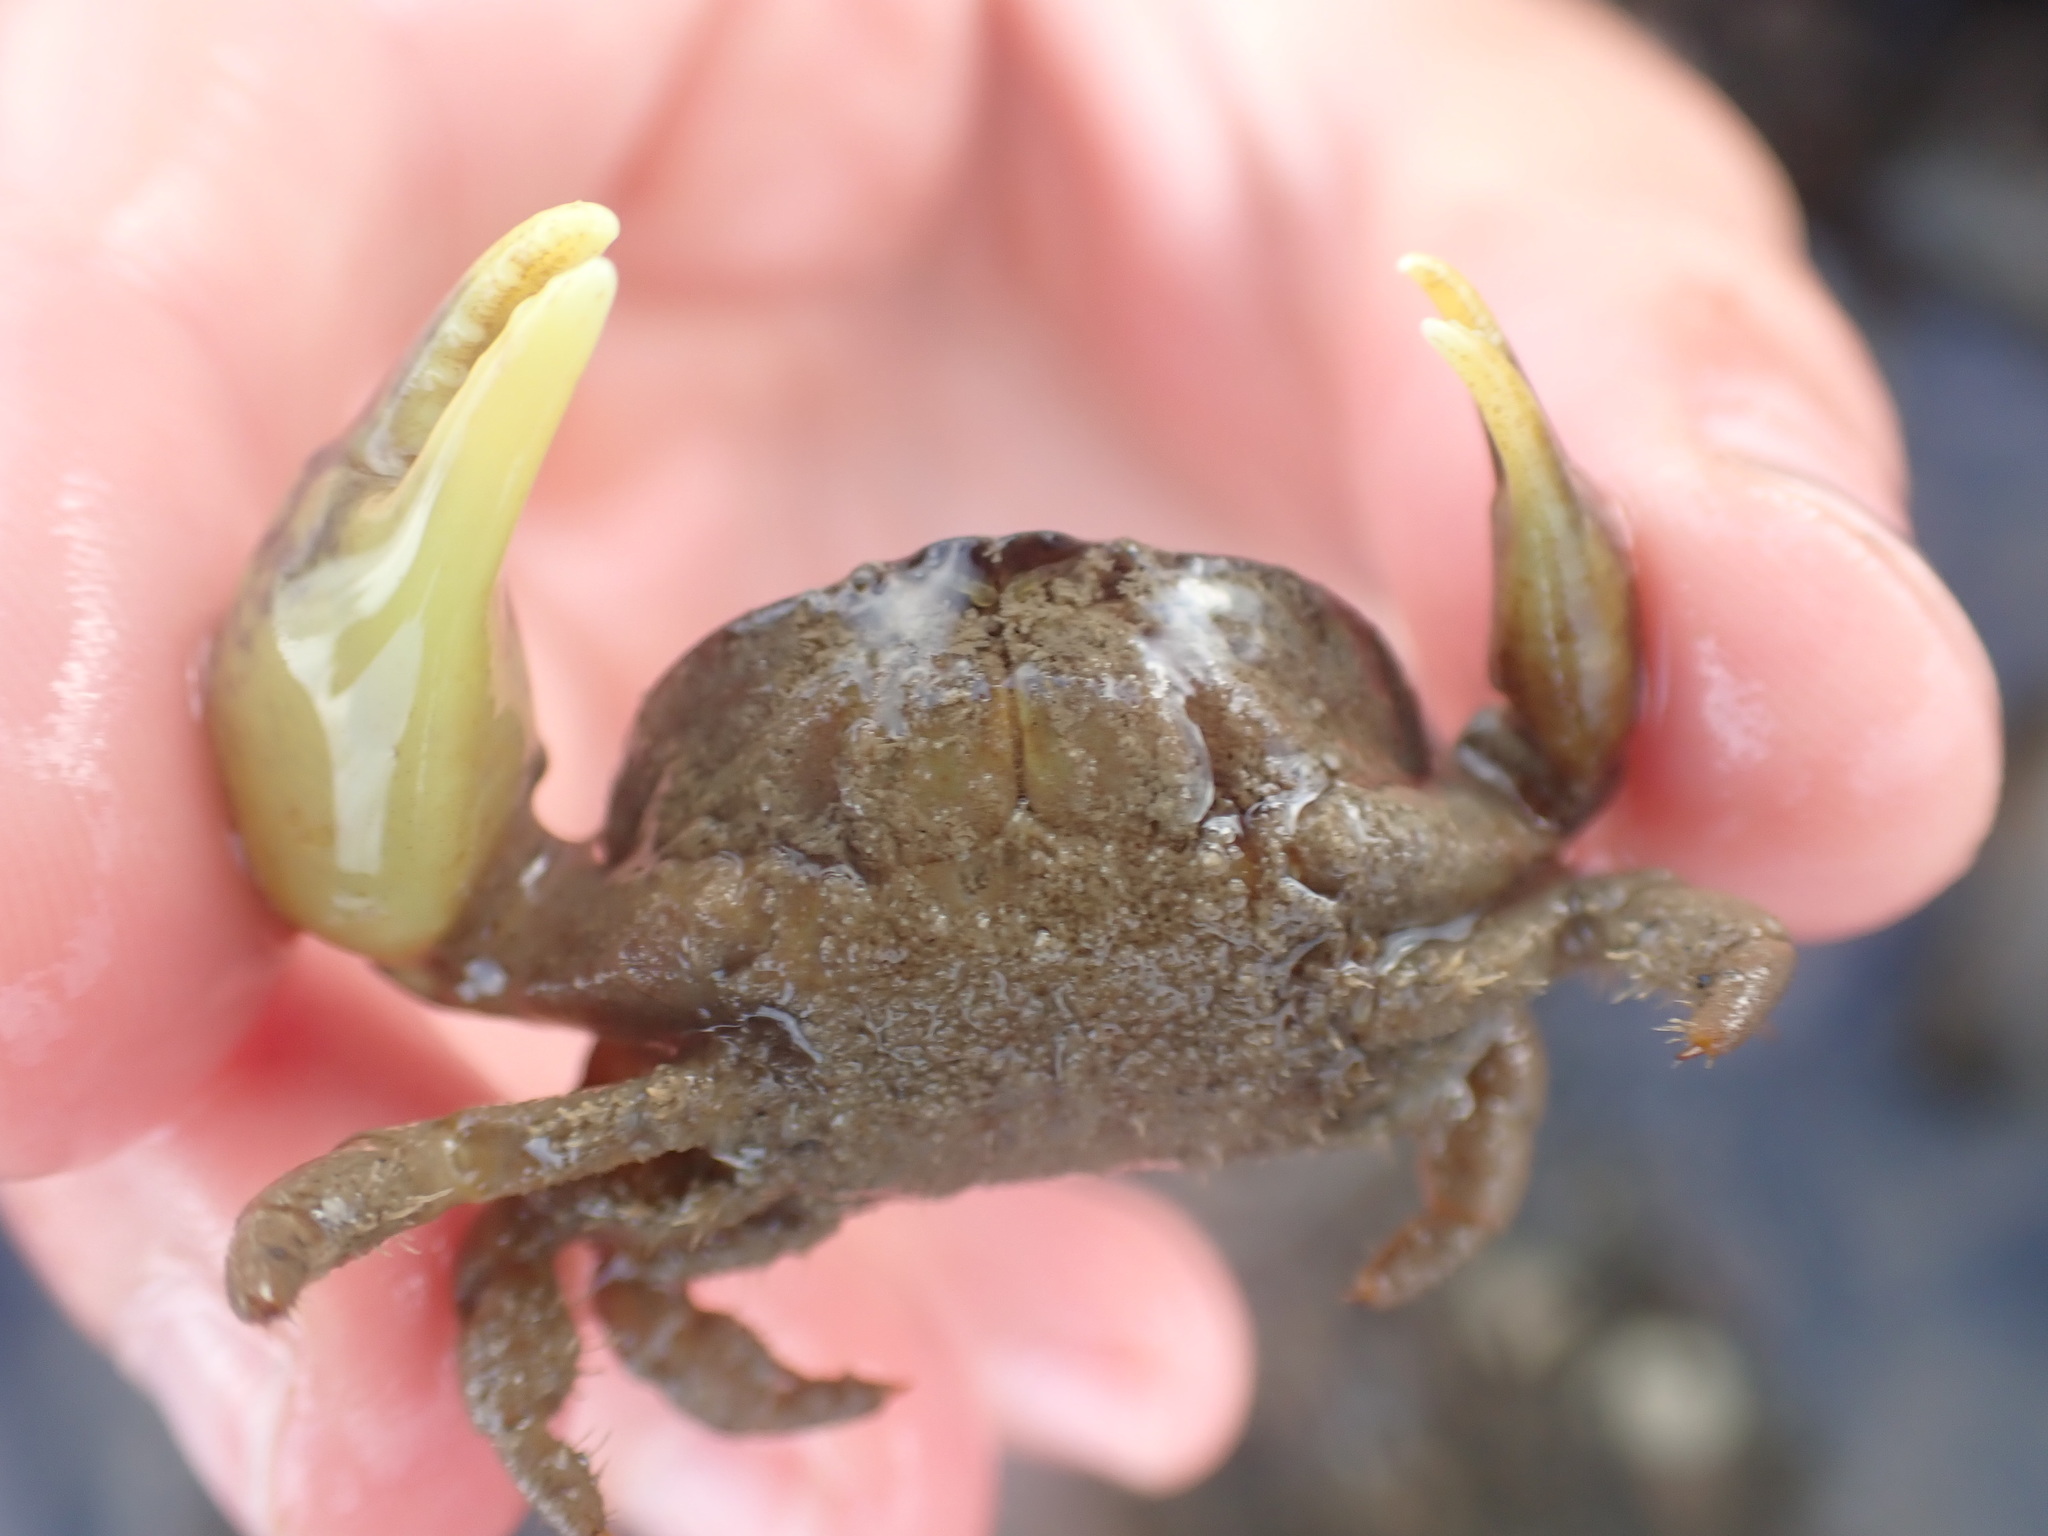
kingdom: Animalia
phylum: Arthropoda
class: Malacostraca
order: Decapoda
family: Heteroziidae
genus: Heterozius
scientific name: Heterozius rotundifrons
